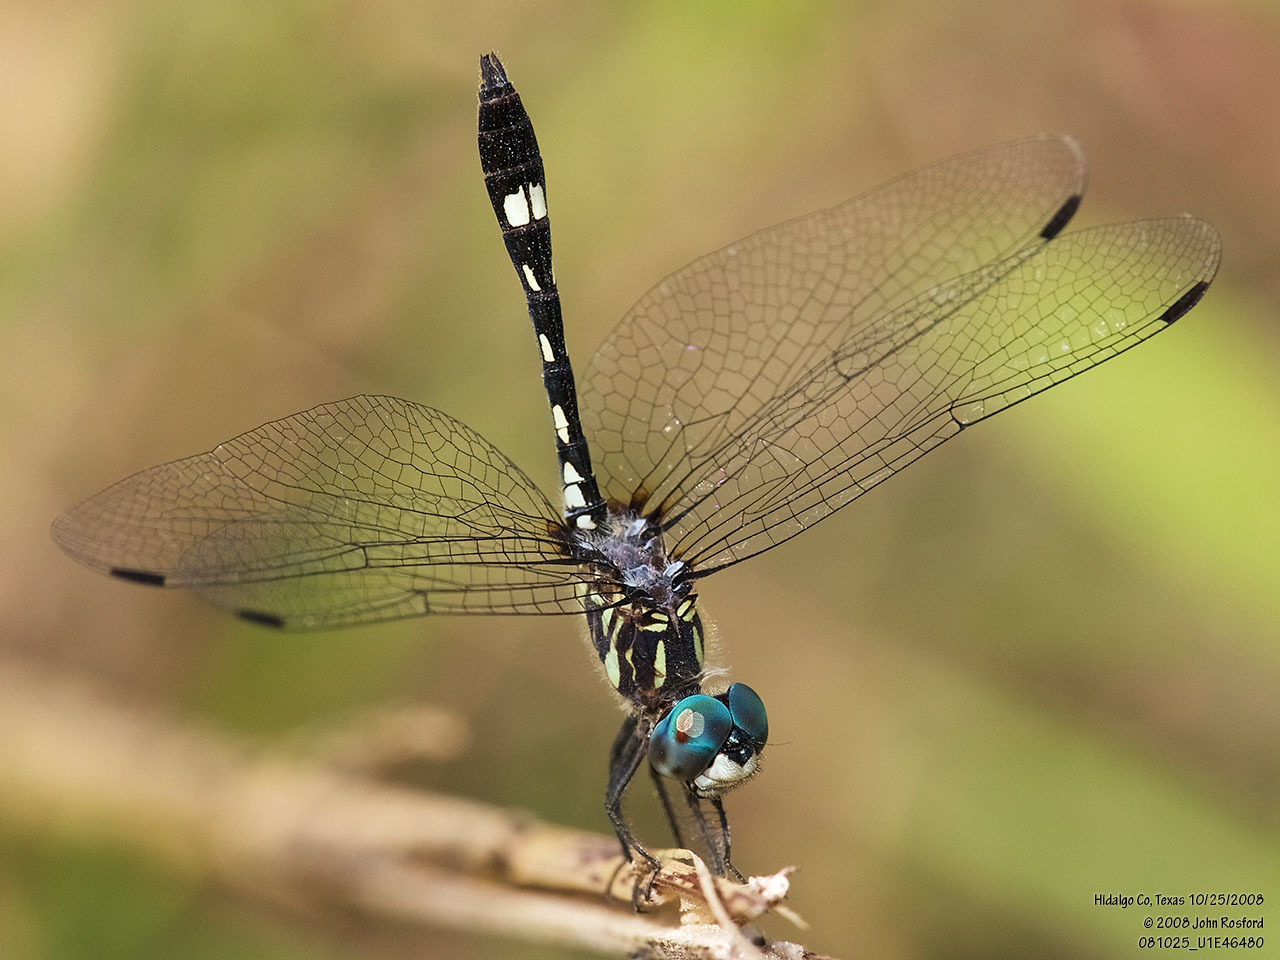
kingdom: Animalia
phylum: Arthropoda
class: Insecta
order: Odonata
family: Libellulidae
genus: Micrathyria
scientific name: Micrathyria hagenii
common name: Thornbush dasher
